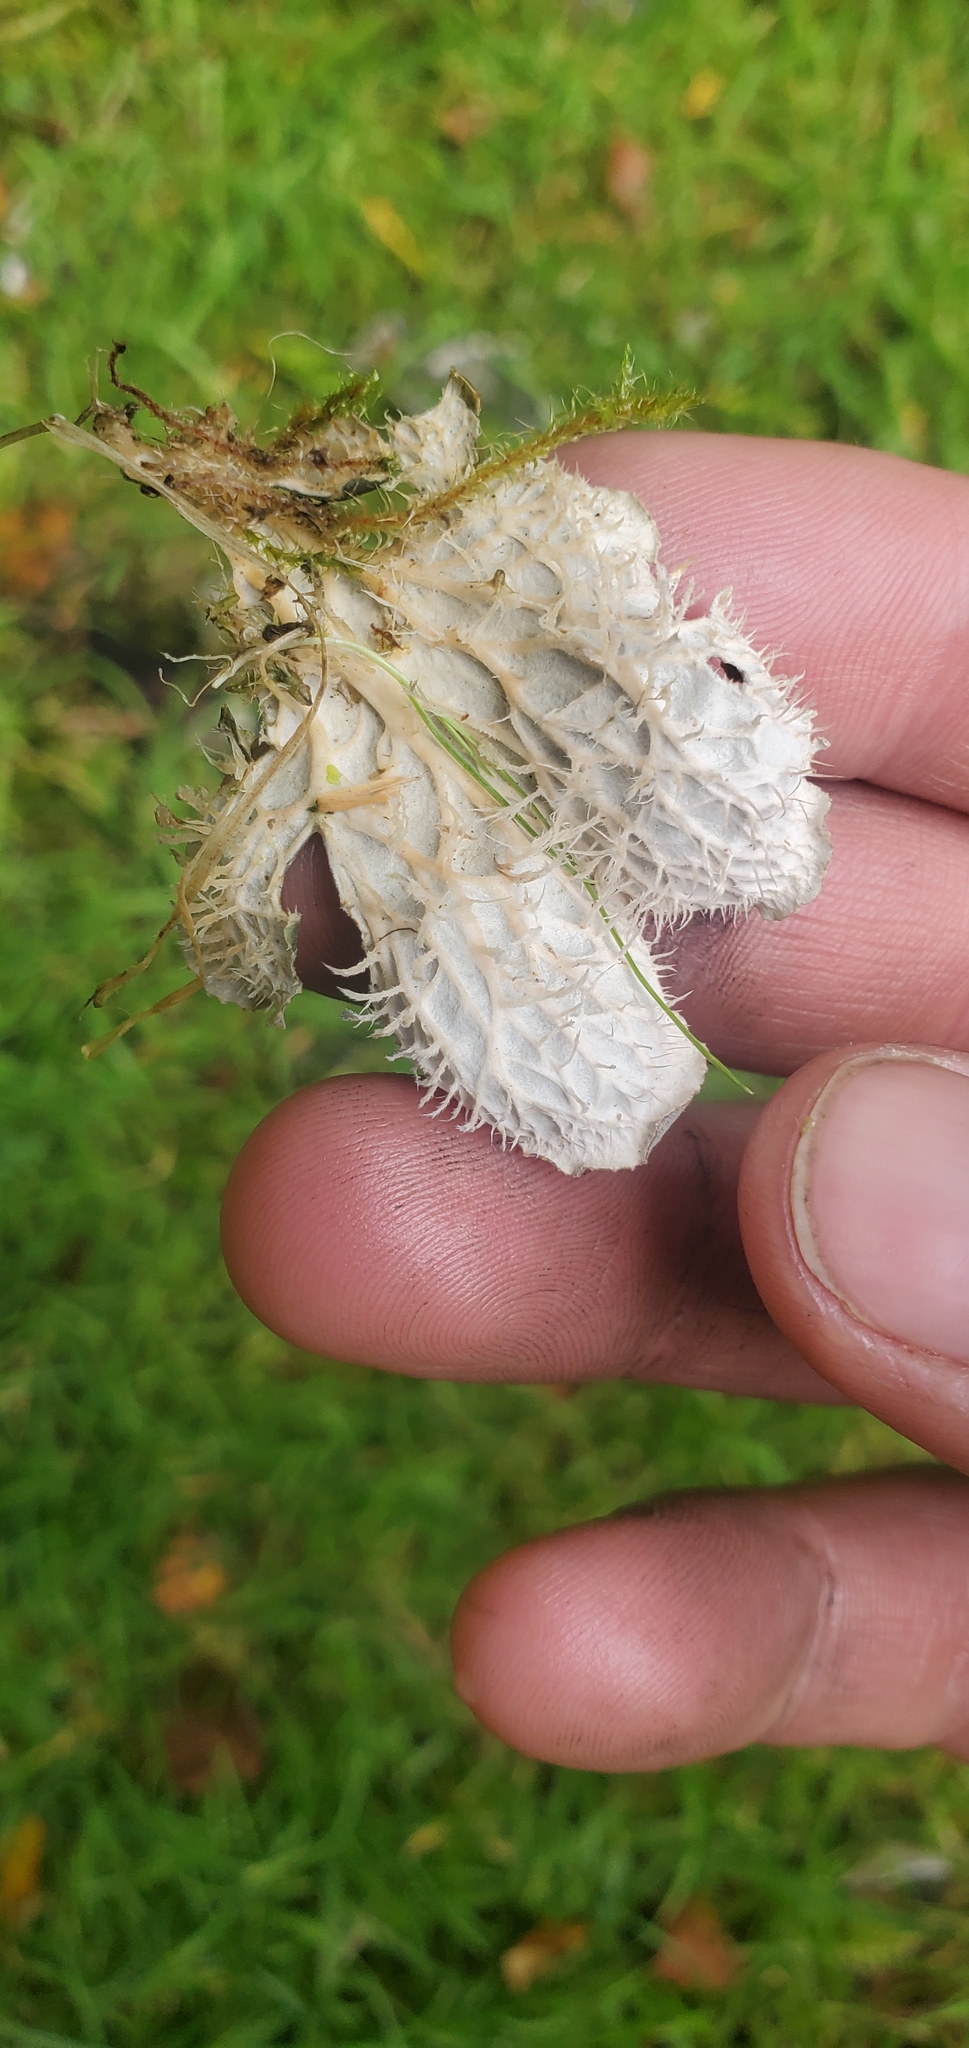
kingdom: Fungi
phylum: Ascomycota
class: Lecanoromycetes
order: Peltigerales
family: Peltigeraceae
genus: Peltigera
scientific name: Peltigera membranacea
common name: Membranous pelt lichen
